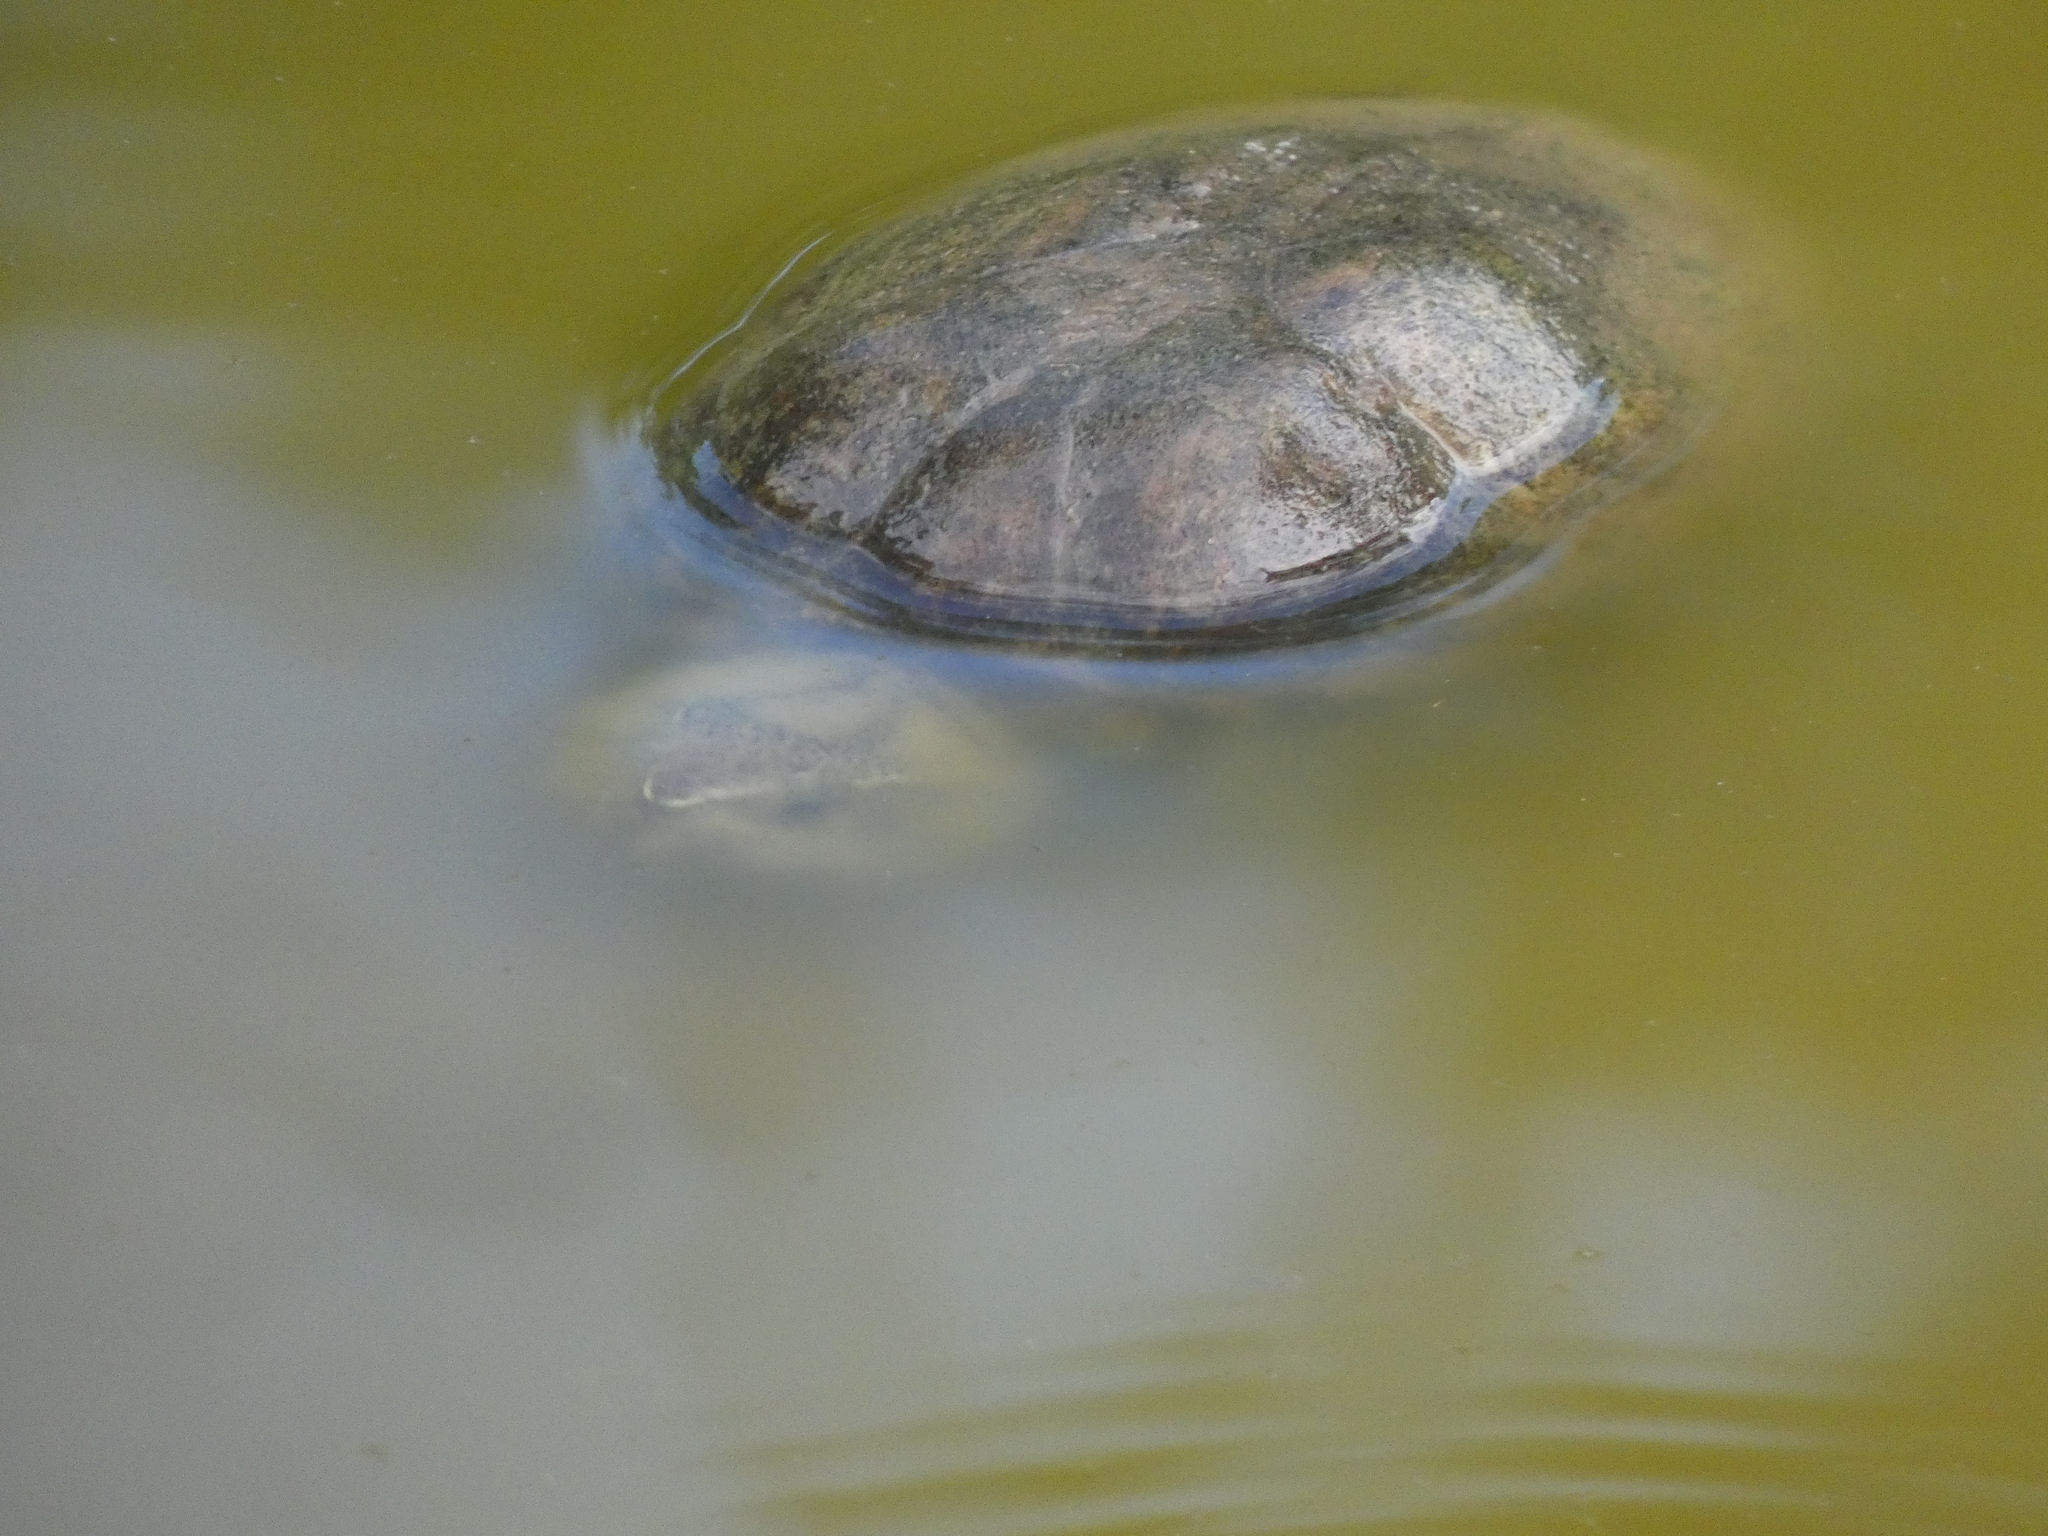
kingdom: Animalia
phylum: Chordata
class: Testudines
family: Kinosternidae
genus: Sternotherus
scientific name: Sternotherus odoratus
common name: Common musk turtle
